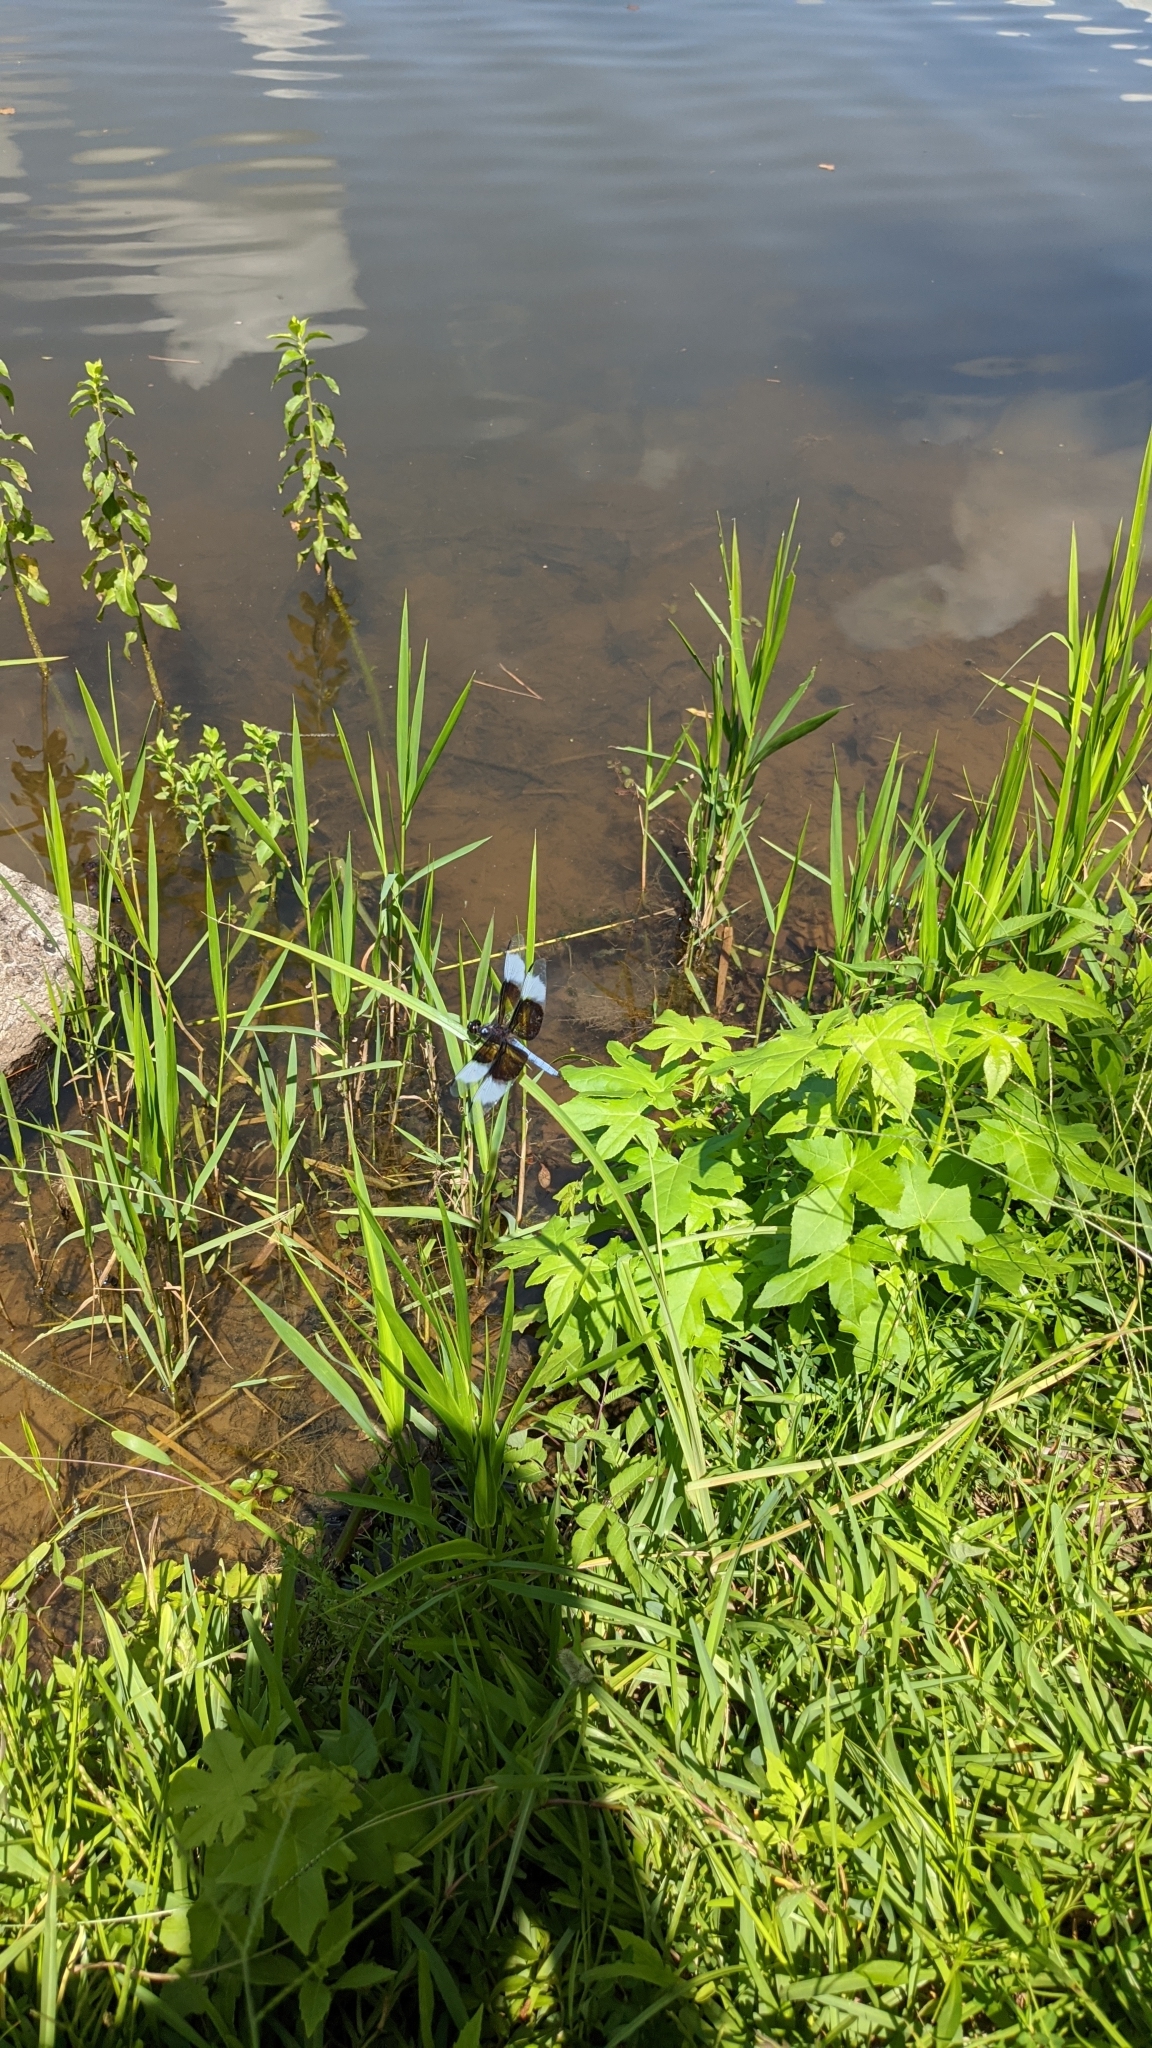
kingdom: Animalia
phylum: Arthropoda
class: Insecta
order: Odonata
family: Libellulidae
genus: Libellula
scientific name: Libellula luctuosa
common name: Widow skimmer
